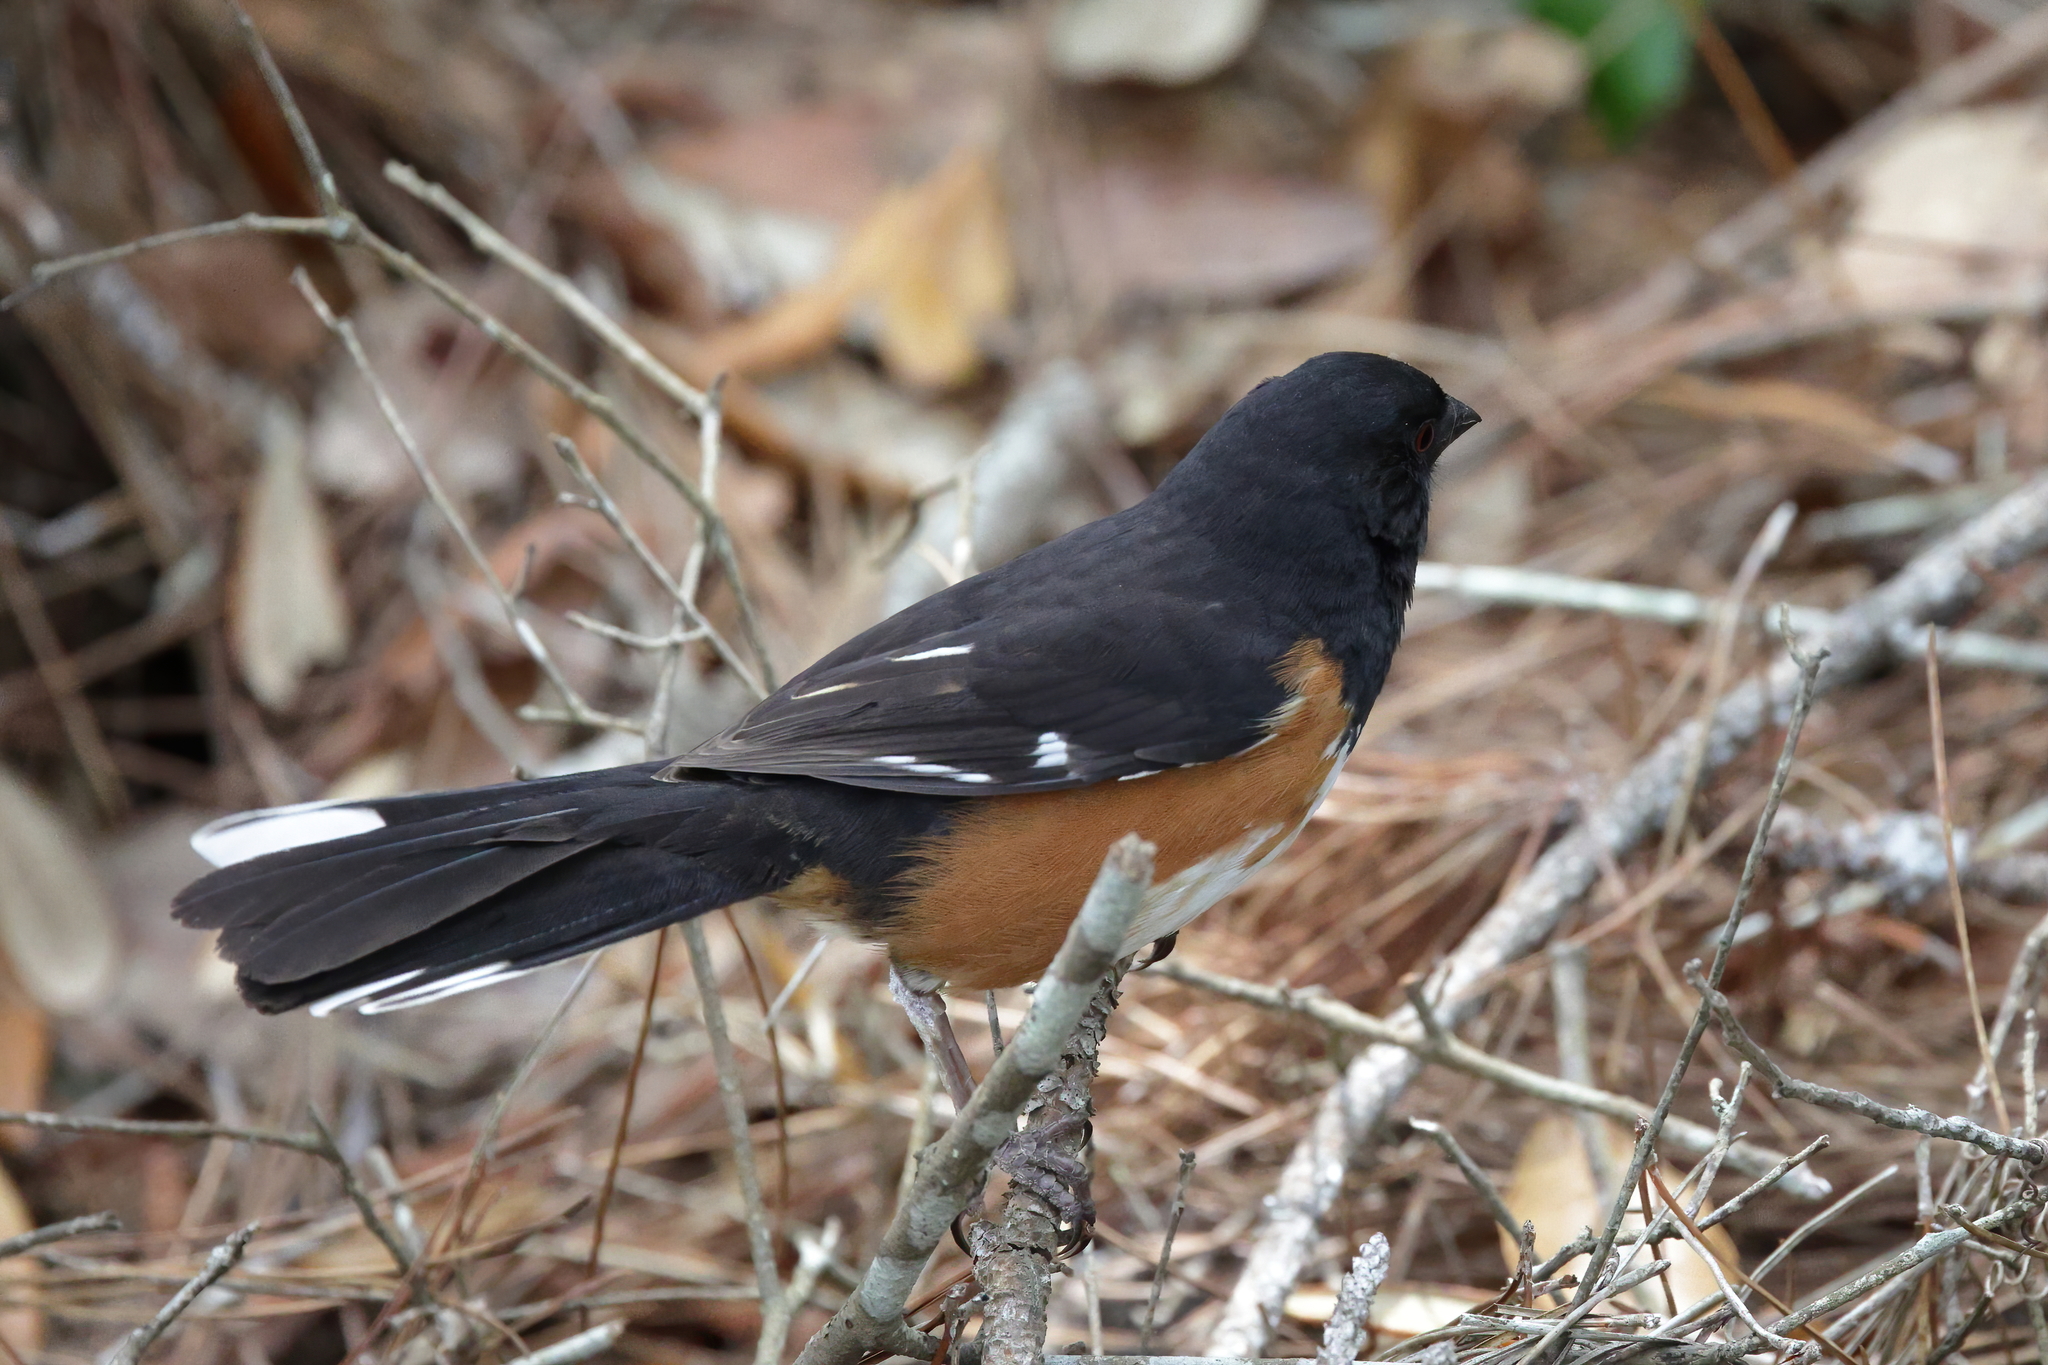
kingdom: Animalia
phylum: Chordata
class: Aves
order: Passeriformes
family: Passerellidae
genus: Pipilo
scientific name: Pipilo erythrophthalmus
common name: Eastern towhee
